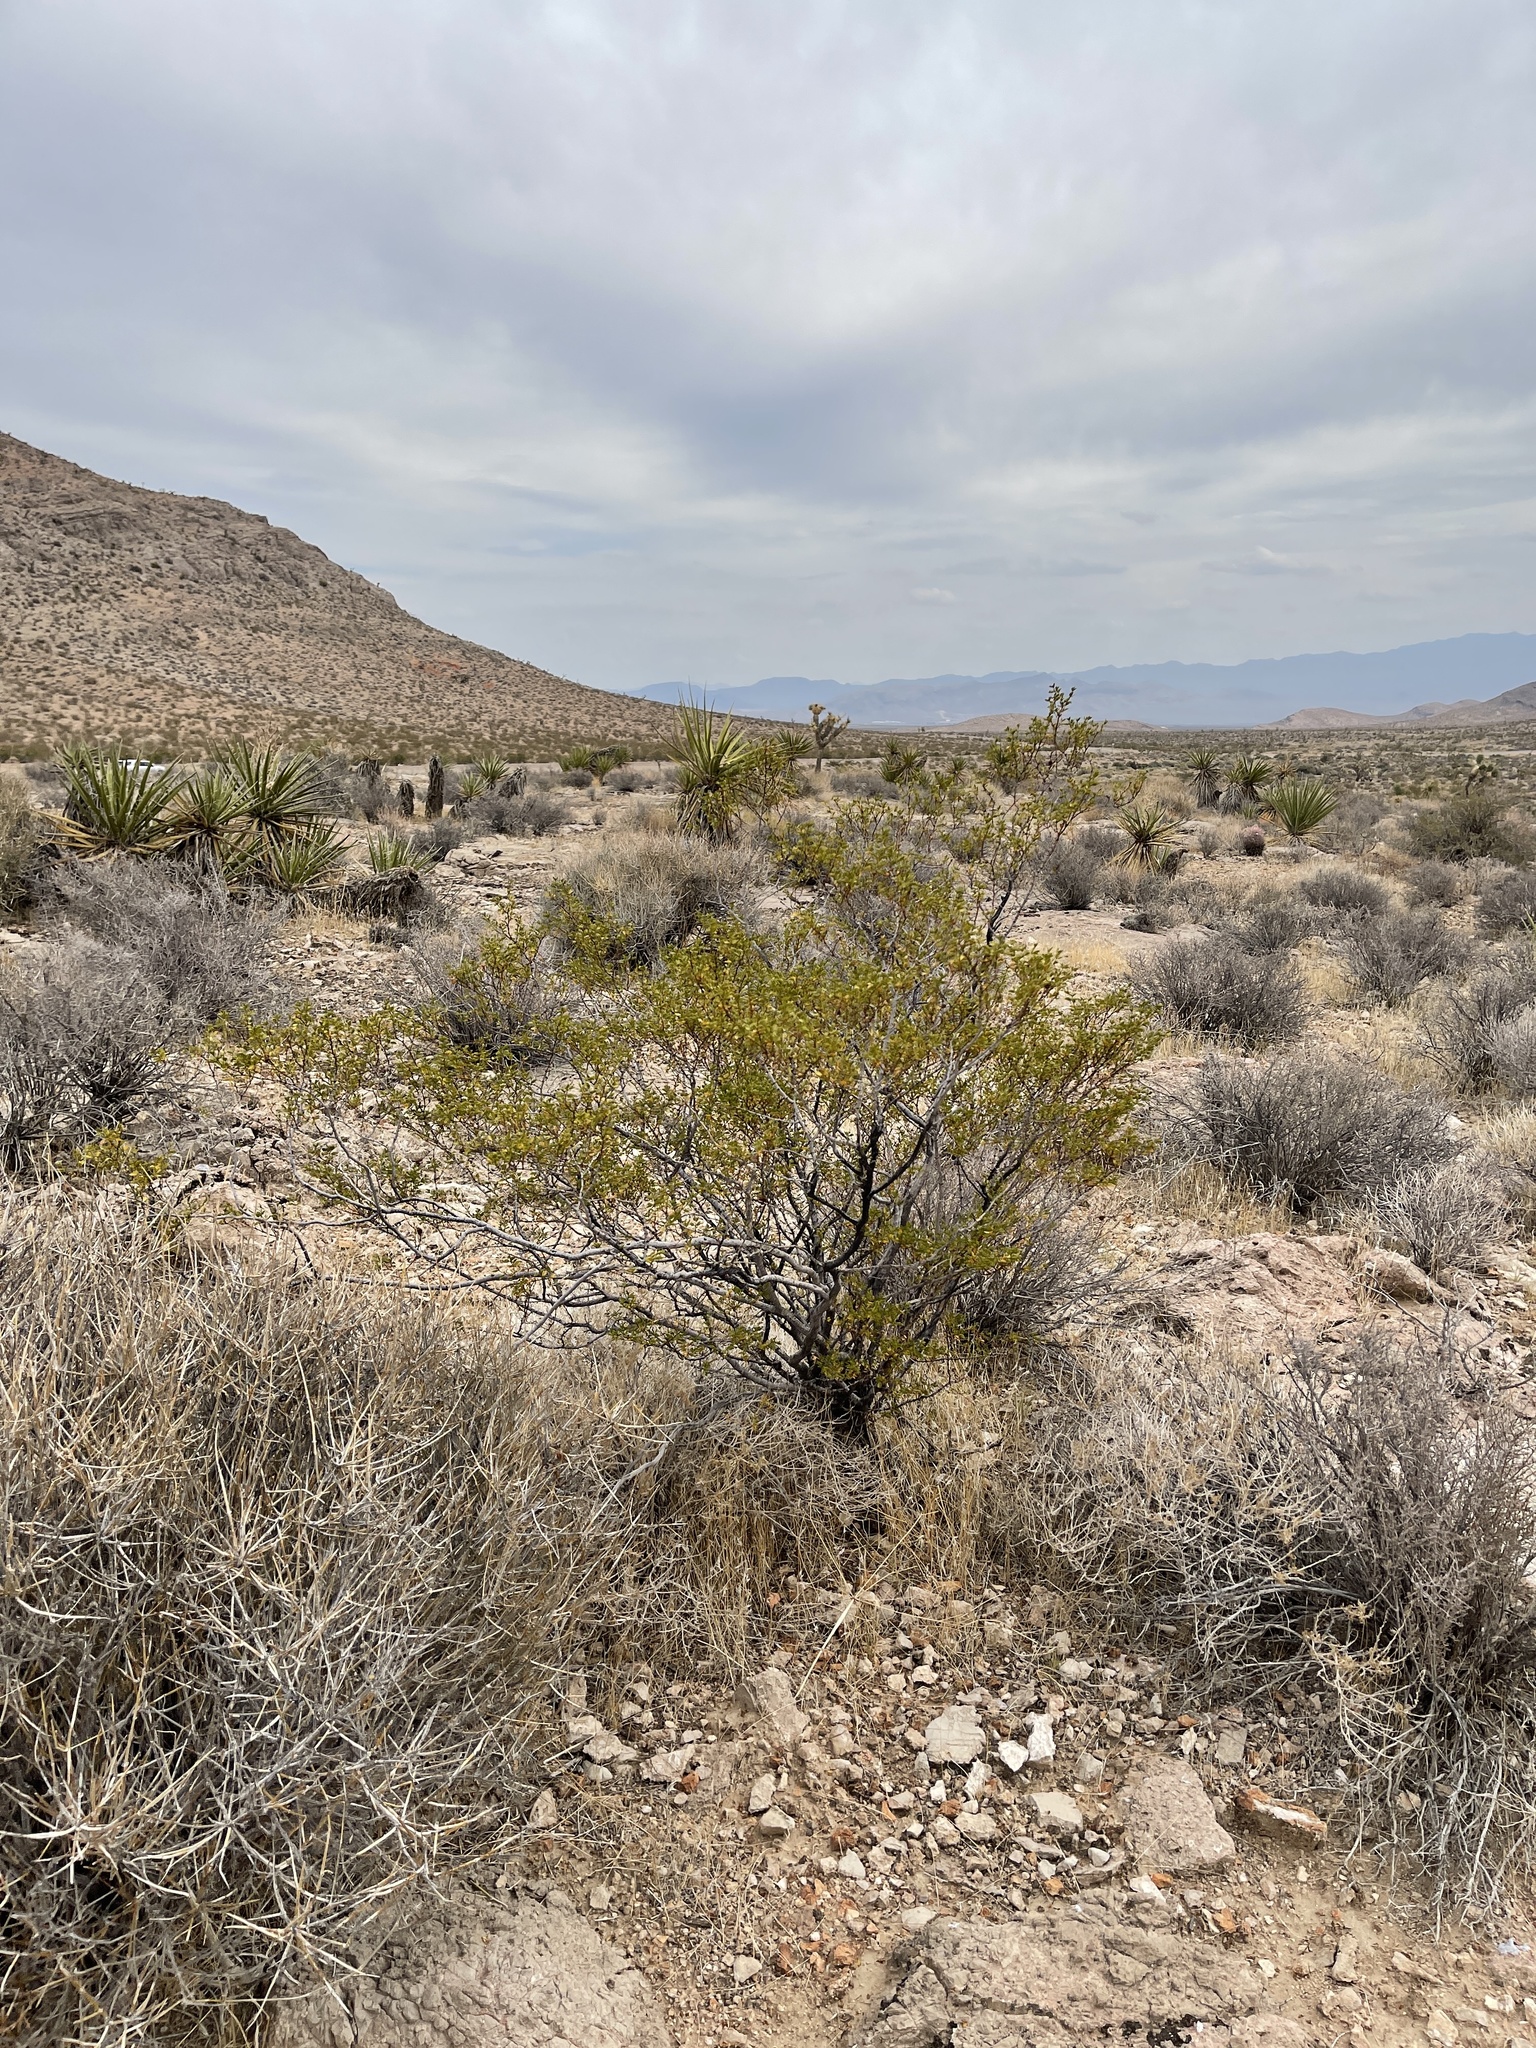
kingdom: Plantae
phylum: Tracheophyta
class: Magnoliopsida
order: Zygophyllales
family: Zygophyllaceae
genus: Larrea
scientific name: Larrea tridentata
